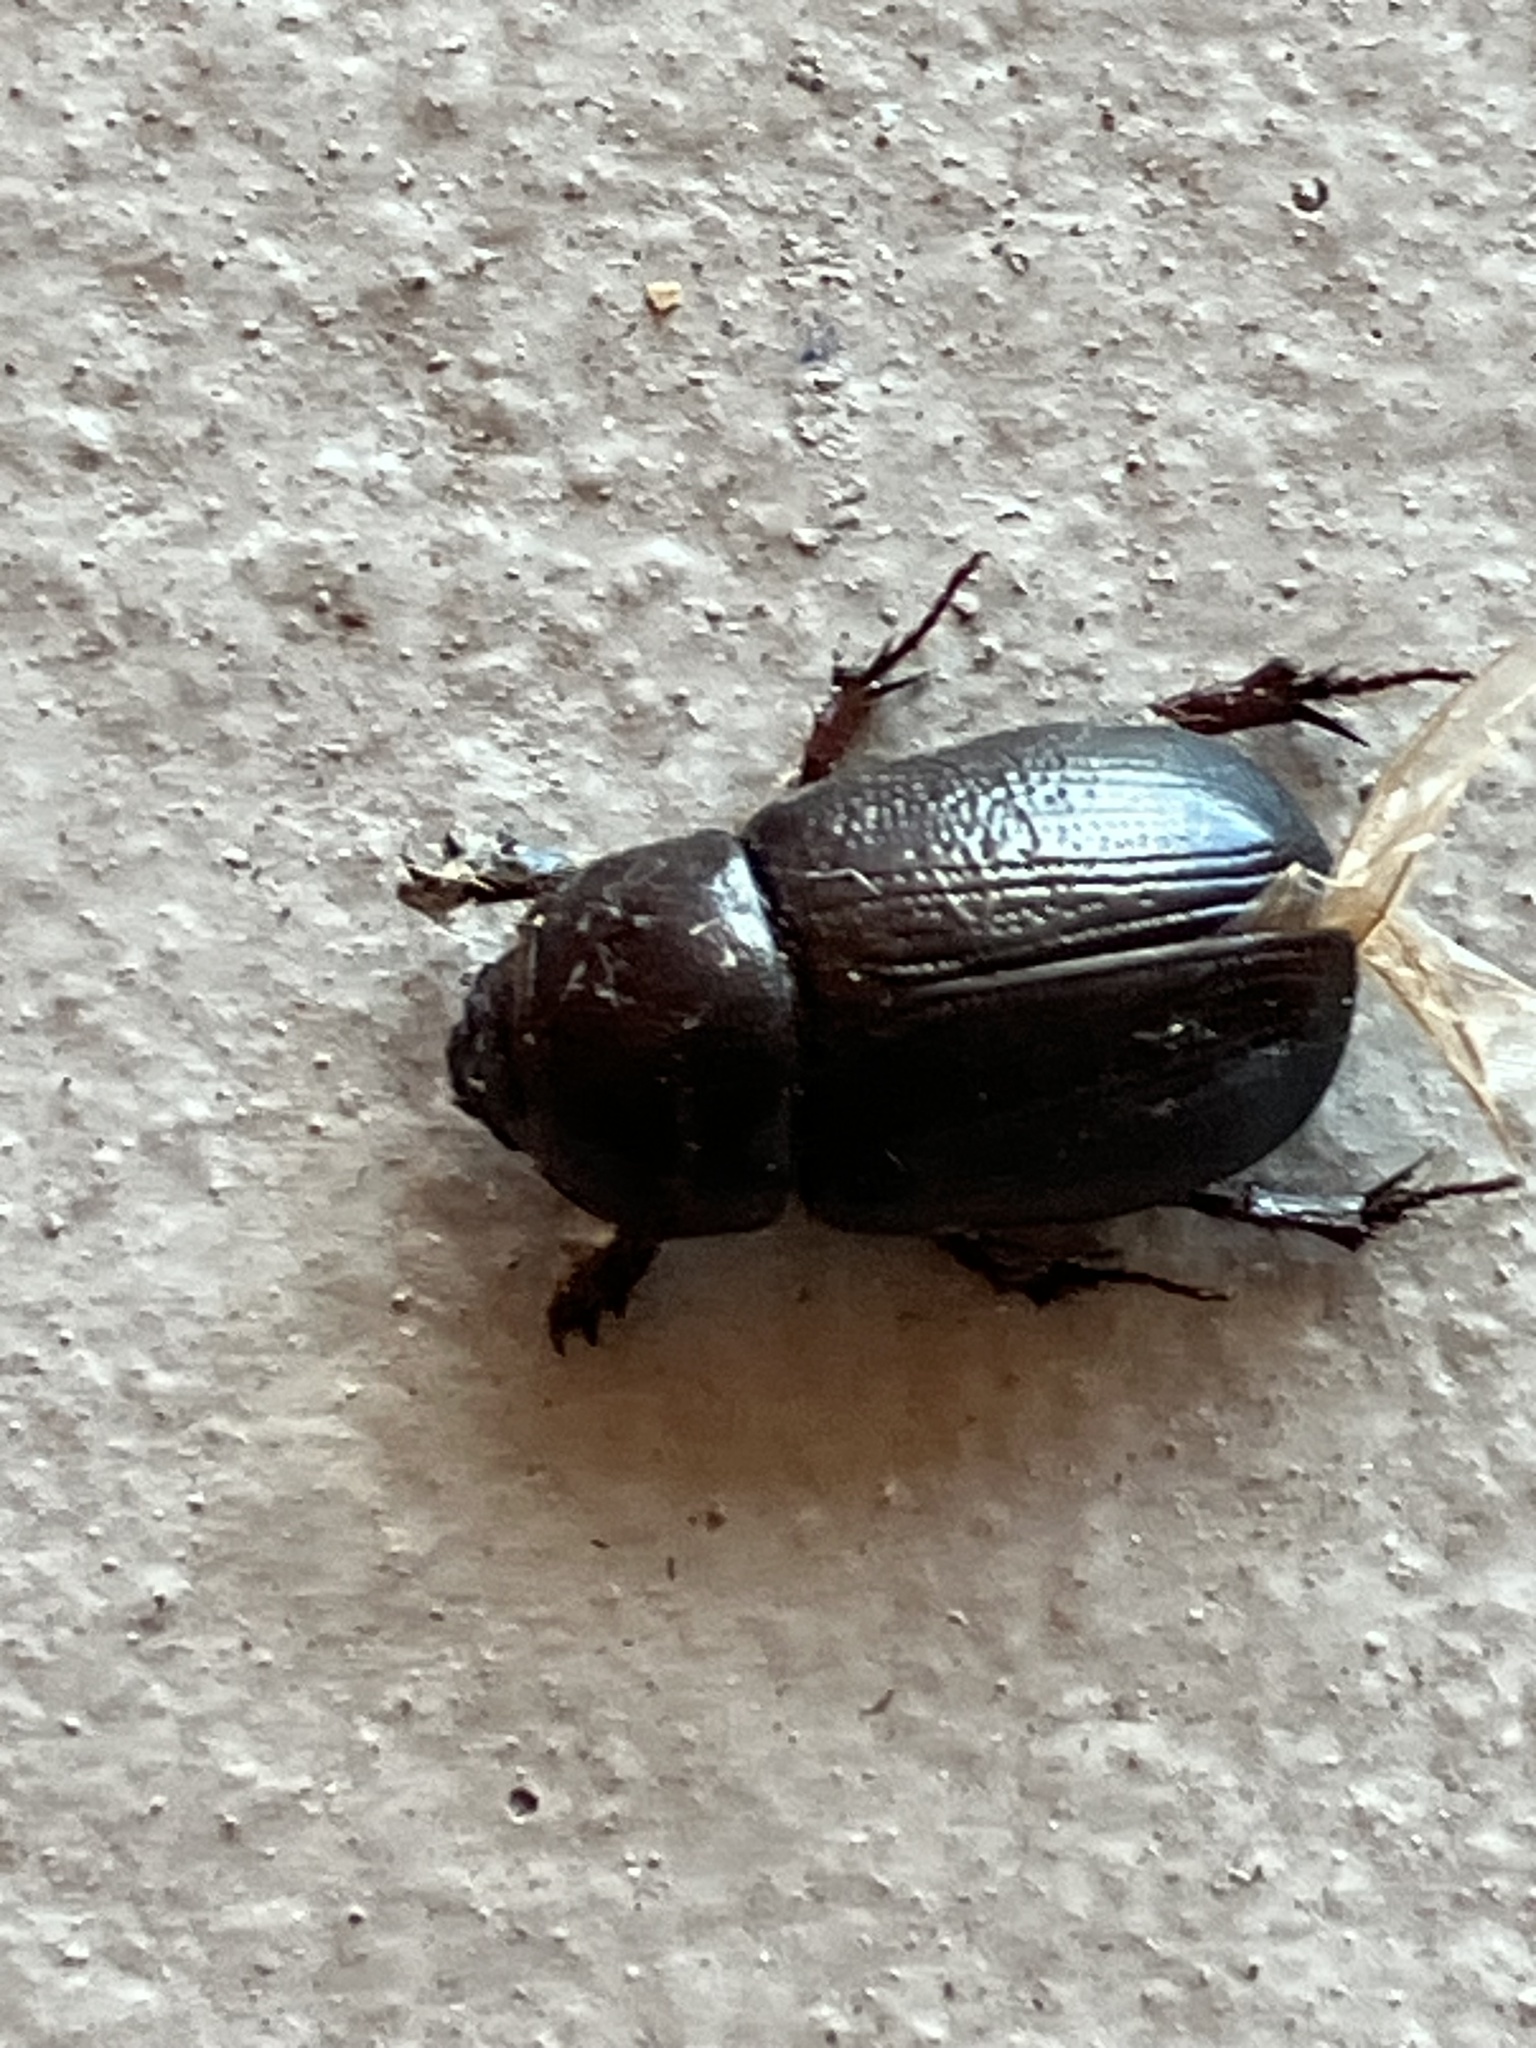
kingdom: Animalia
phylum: Arthropoda
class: Insecta
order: Coleoptera
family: Scarabaeidae
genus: Euetheola
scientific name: Euetheola humilis
